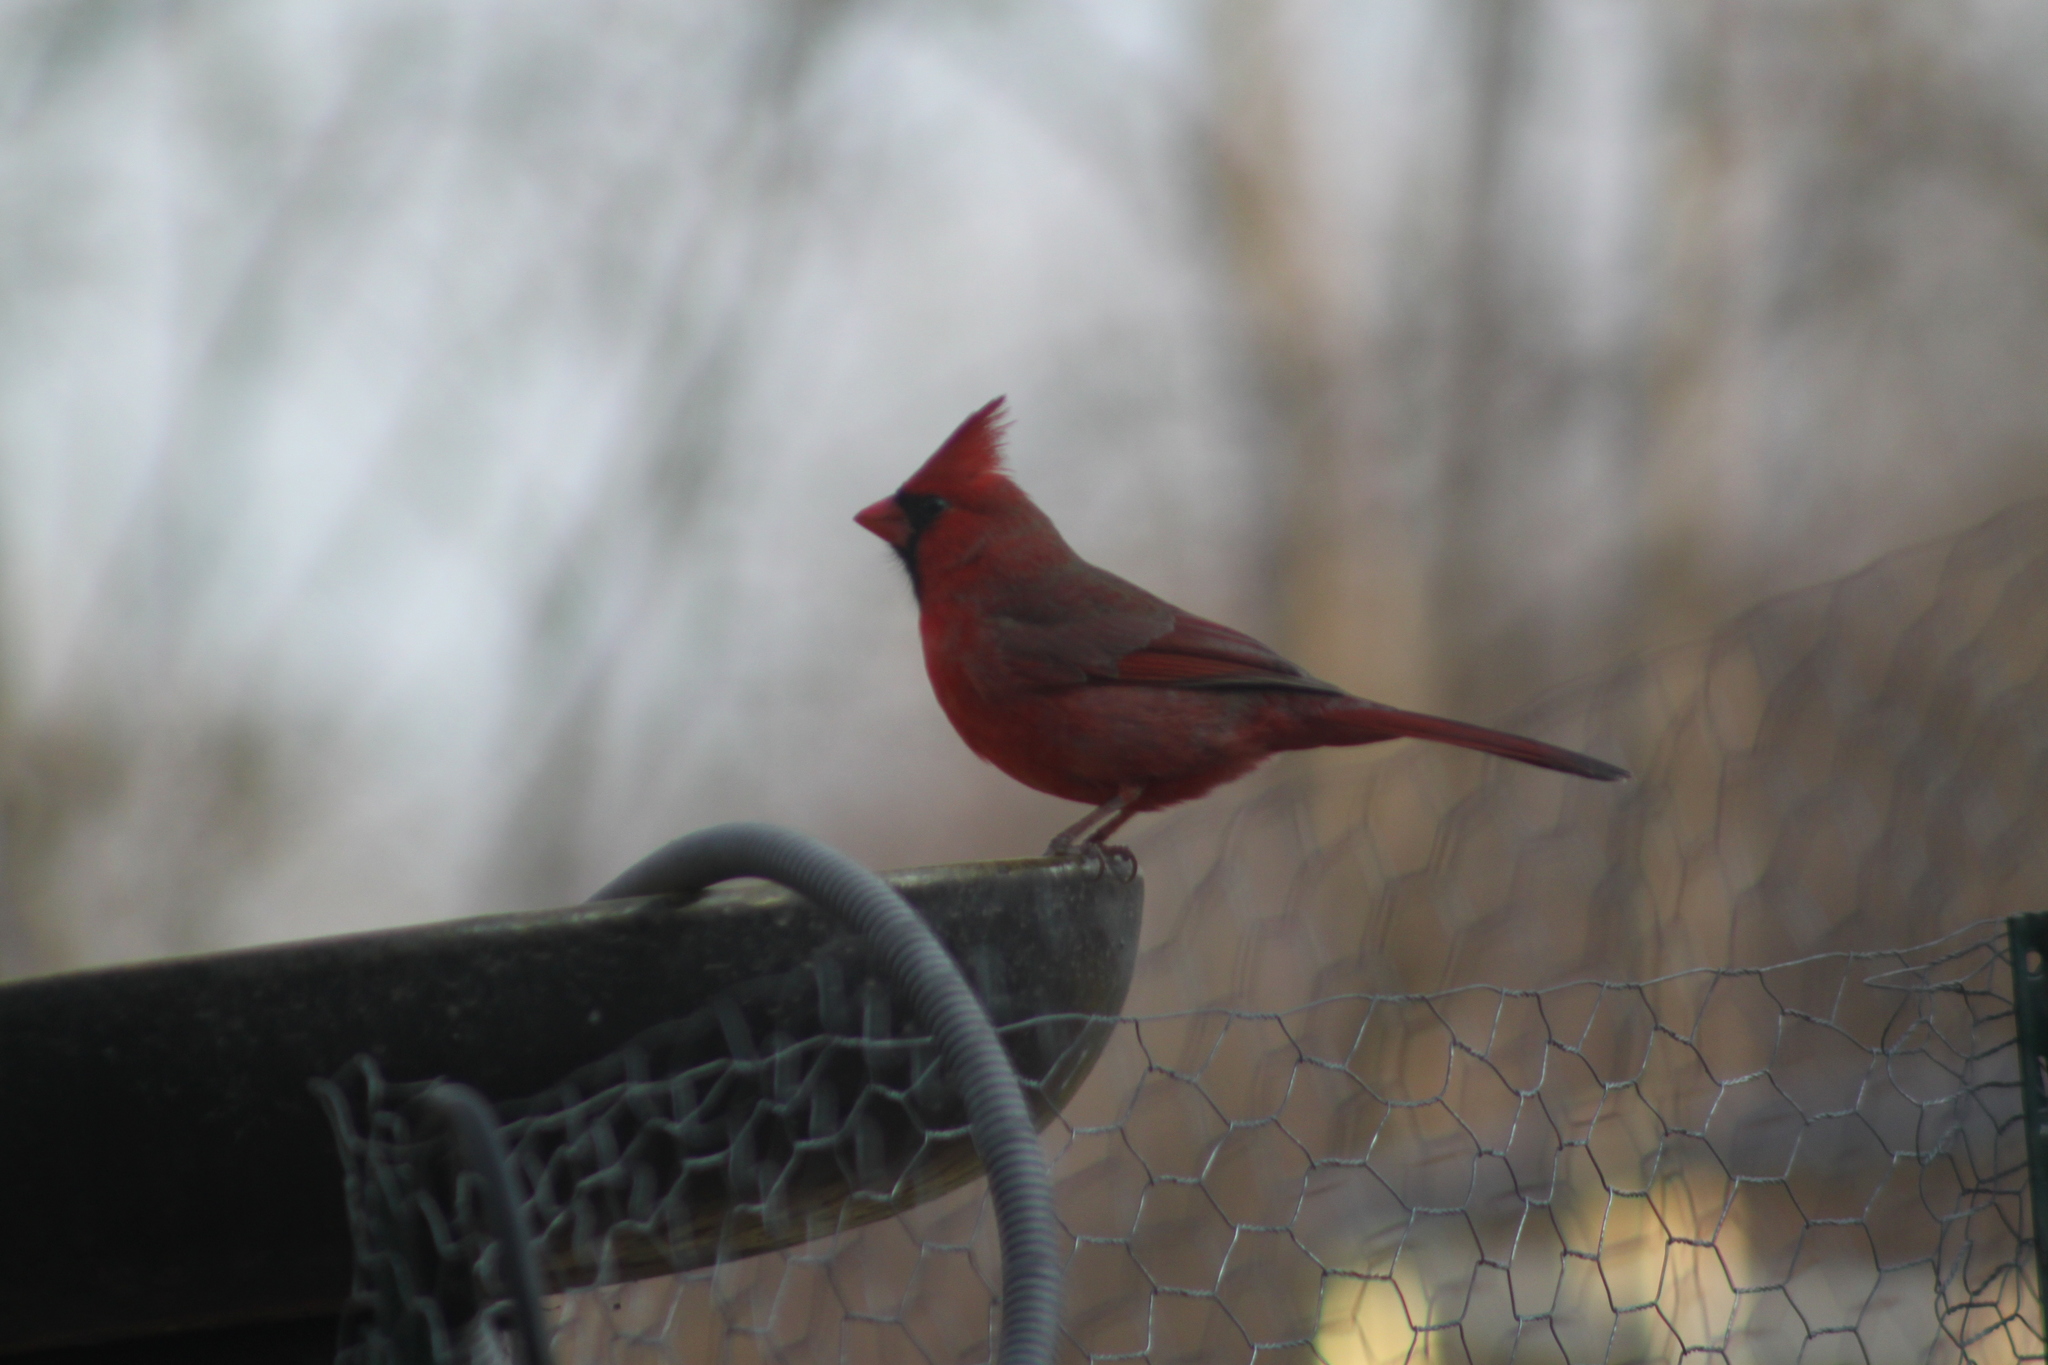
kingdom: Animalia
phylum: Chordata
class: Aves
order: Passeriformes
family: Cardinalidae
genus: Cardinalis
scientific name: Cardinalis cardinalis
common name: Northern cardinal
